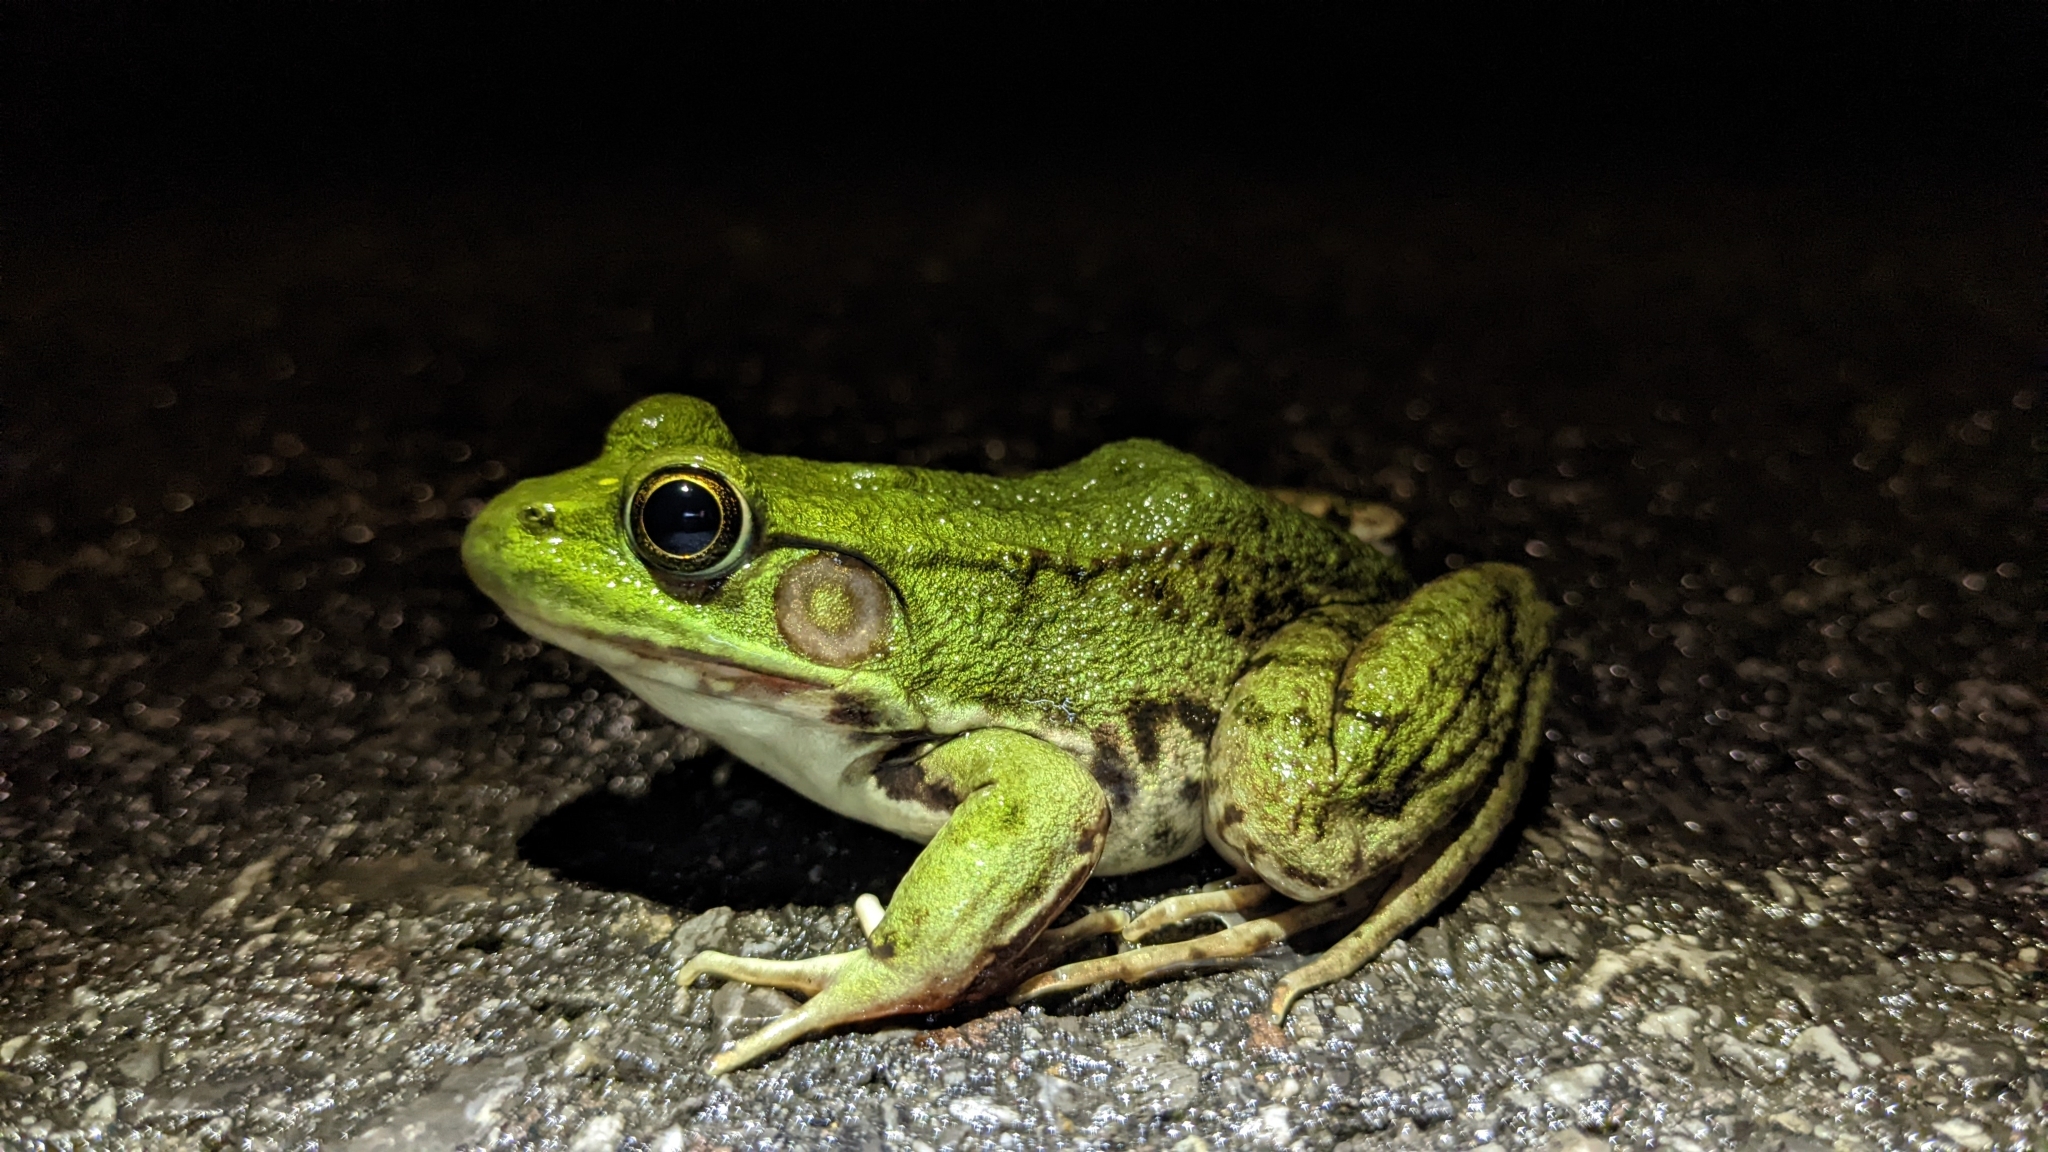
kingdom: Animalia
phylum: Chordata
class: Amphibia
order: Anura
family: Ranidae
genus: Lithobates
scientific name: Lithobates clamitans
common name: Green frog
